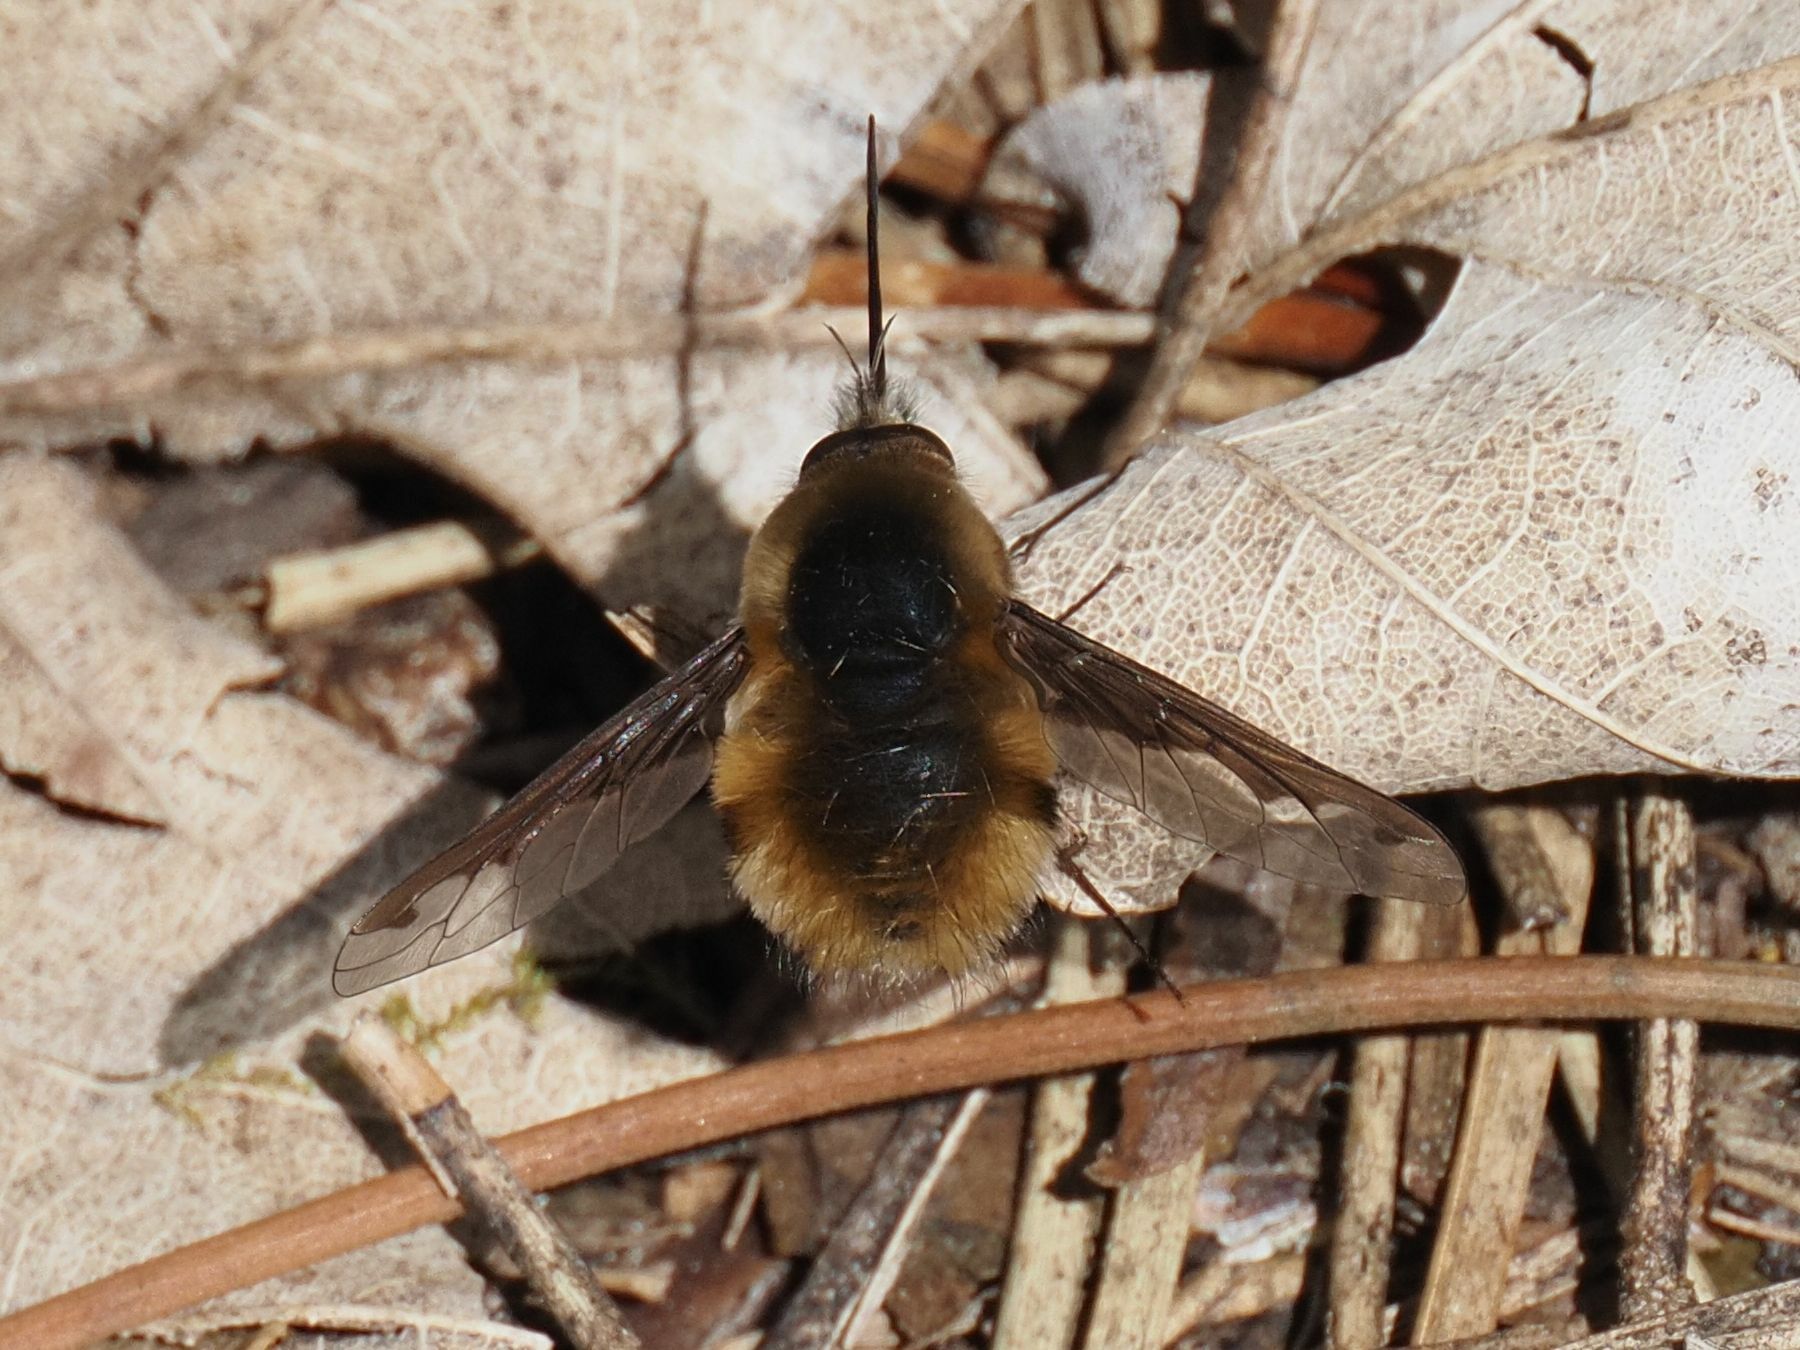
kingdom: Animalia
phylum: Arthropoda
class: Insecta
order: Diptera
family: Bombyliidae
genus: Bombylius
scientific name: Bombylius major
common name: Bee fly
